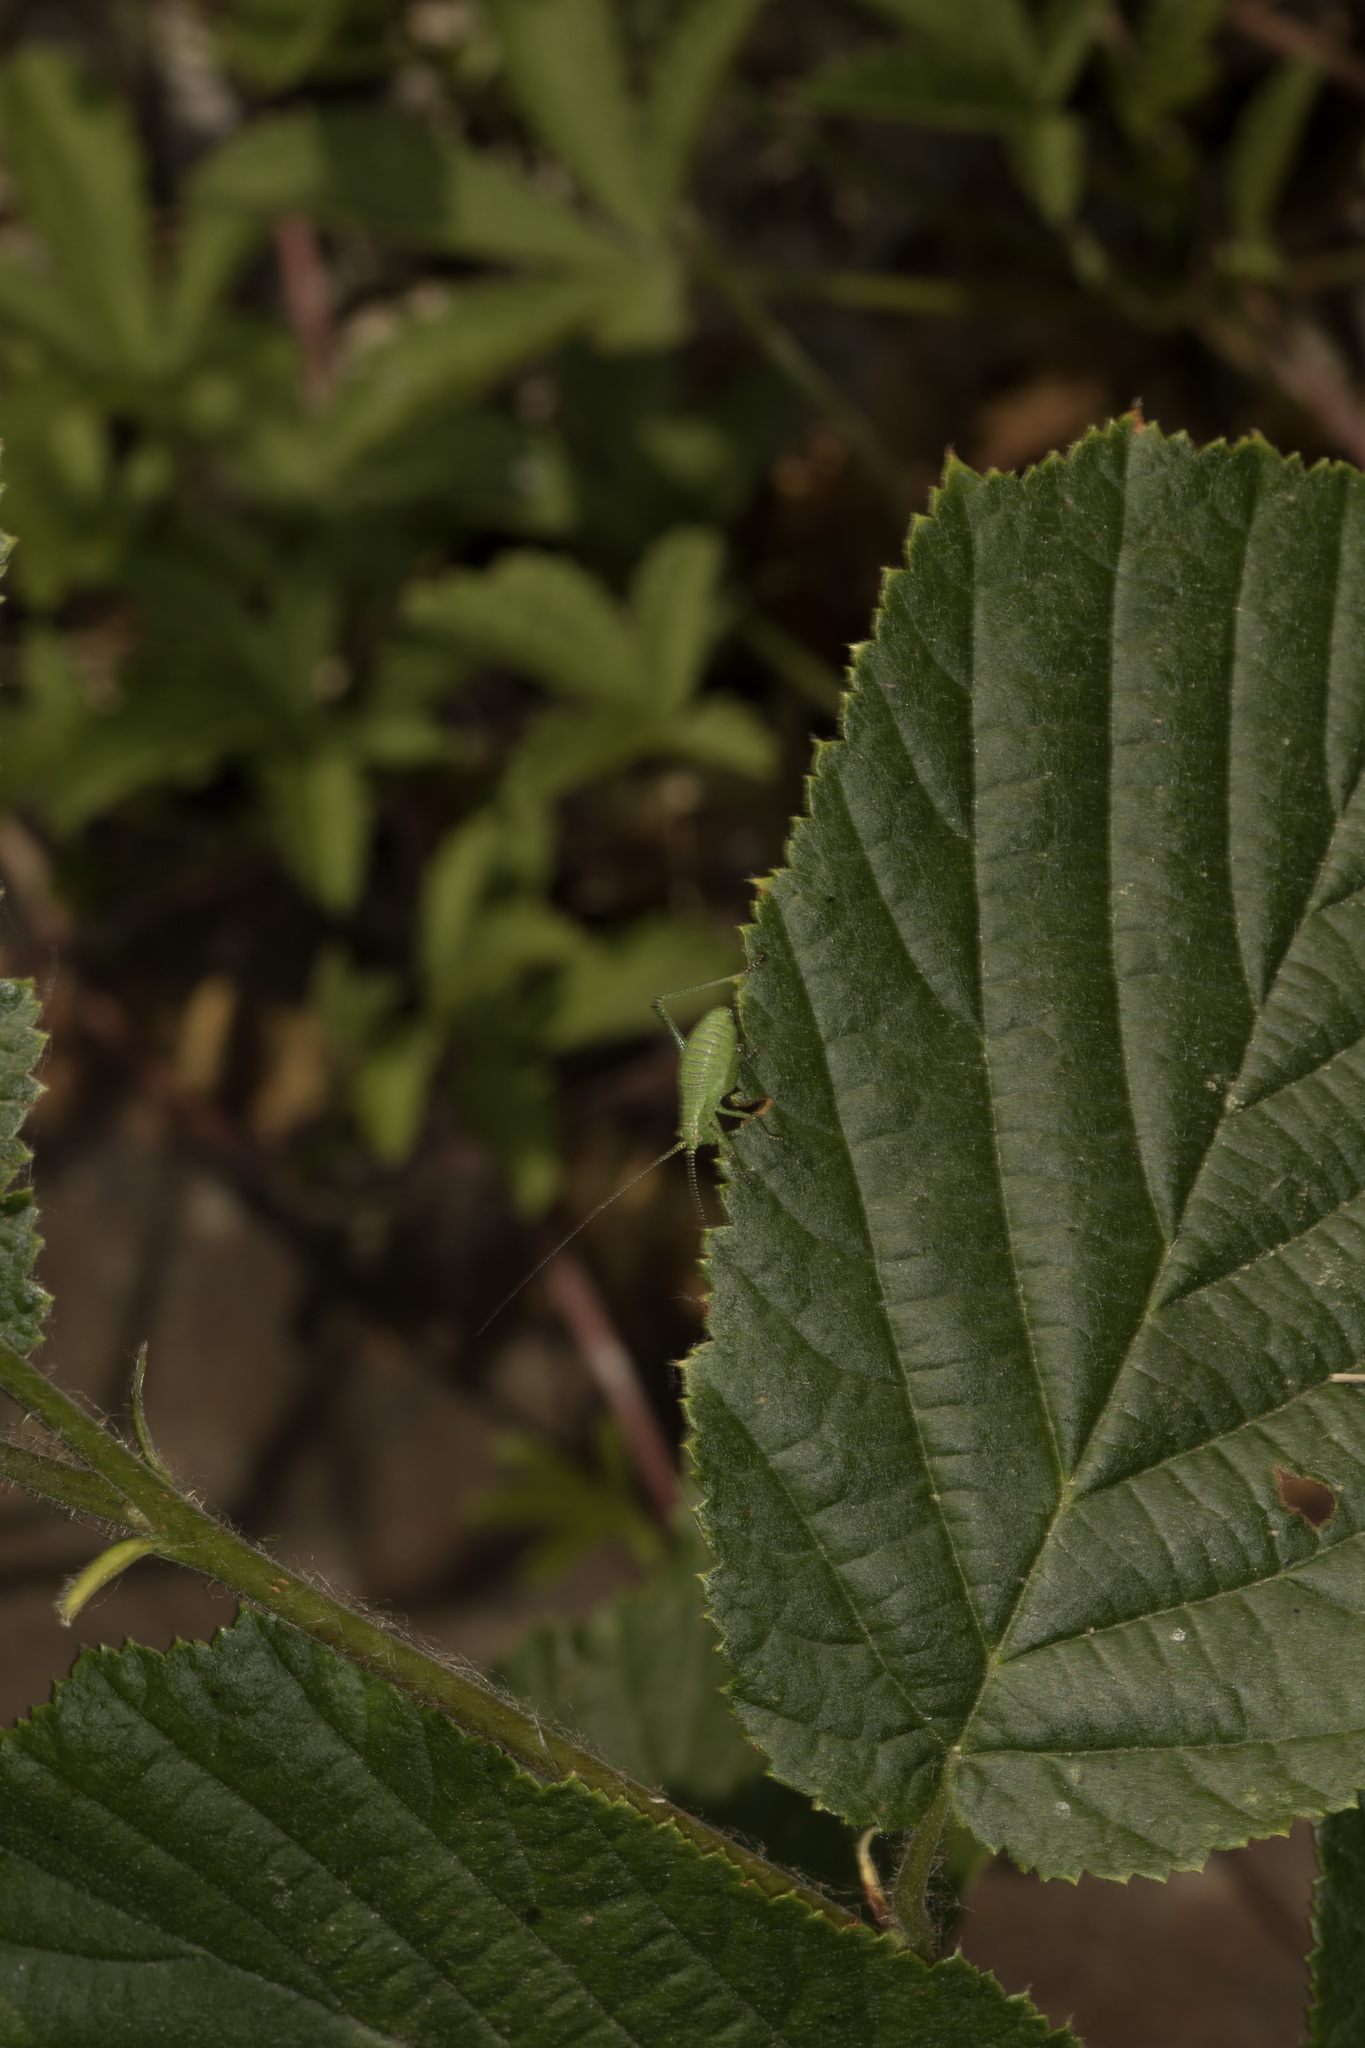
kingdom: Animalia
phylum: Arthropoda
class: Insecta
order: Orthoptera
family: Tettigoniidae
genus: Leptophyes
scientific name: Leptophyes punctatissima
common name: Speckled bush-cricket
